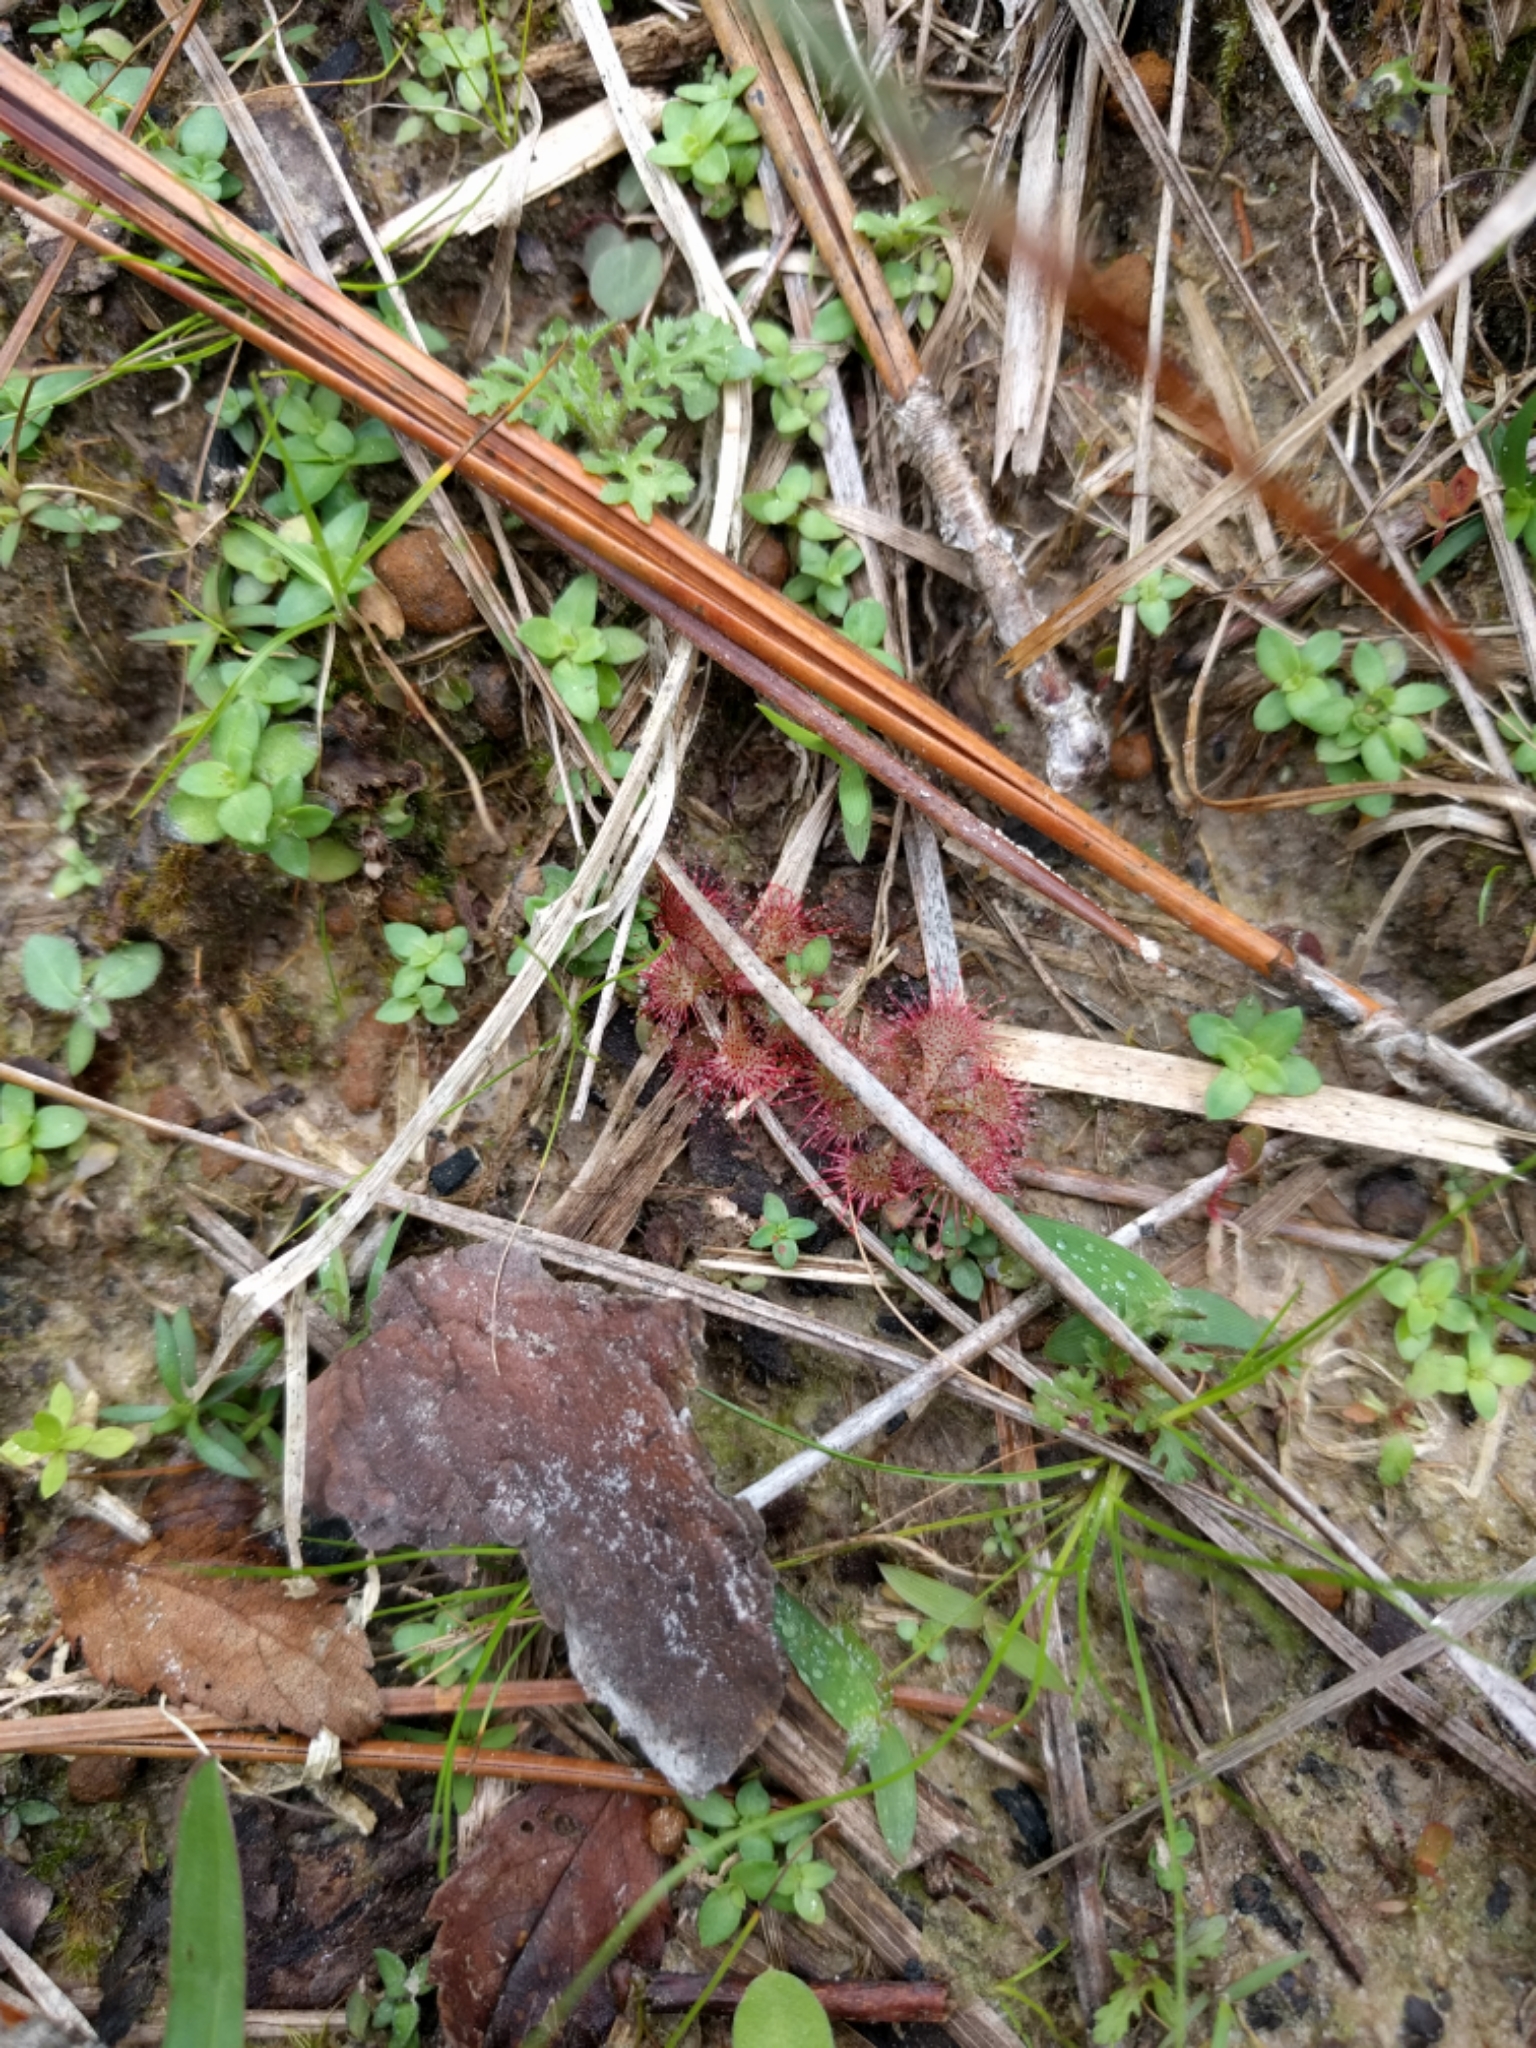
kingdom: Plantae
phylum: Tracheophyta
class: Magnoliopsida
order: Caryophyllales
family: Droseraceae
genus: Drosera
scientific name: Drosera brevifolia
